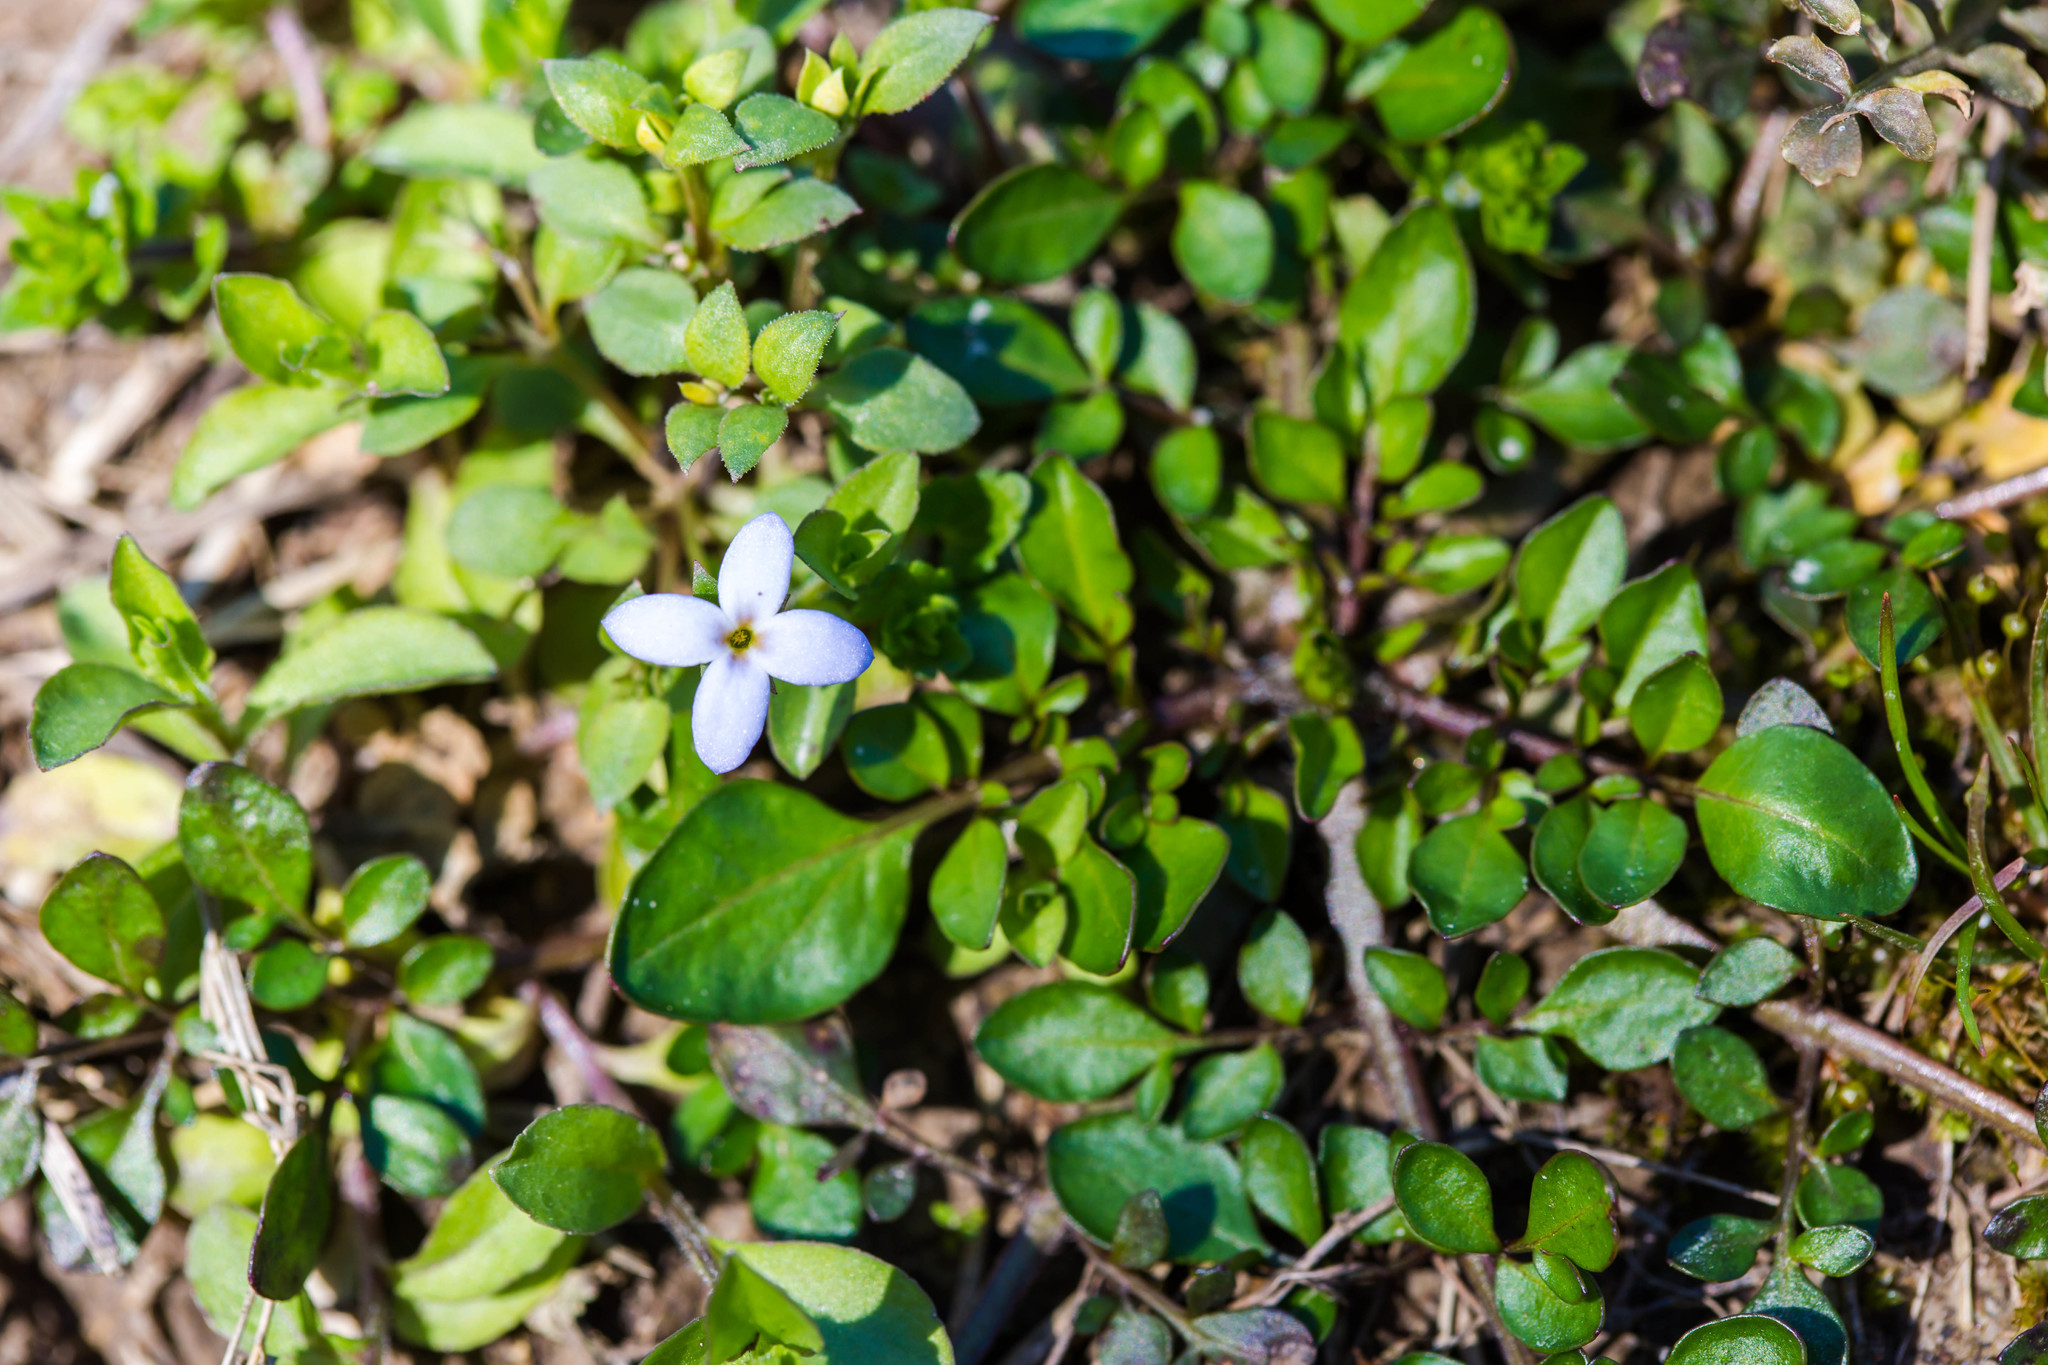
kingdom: Plantae
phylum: Tracheophyta
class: Magnoliopsida
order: Gentianales
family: Rubiaceae
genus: Houstonia
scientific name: Houstonia pusilla
